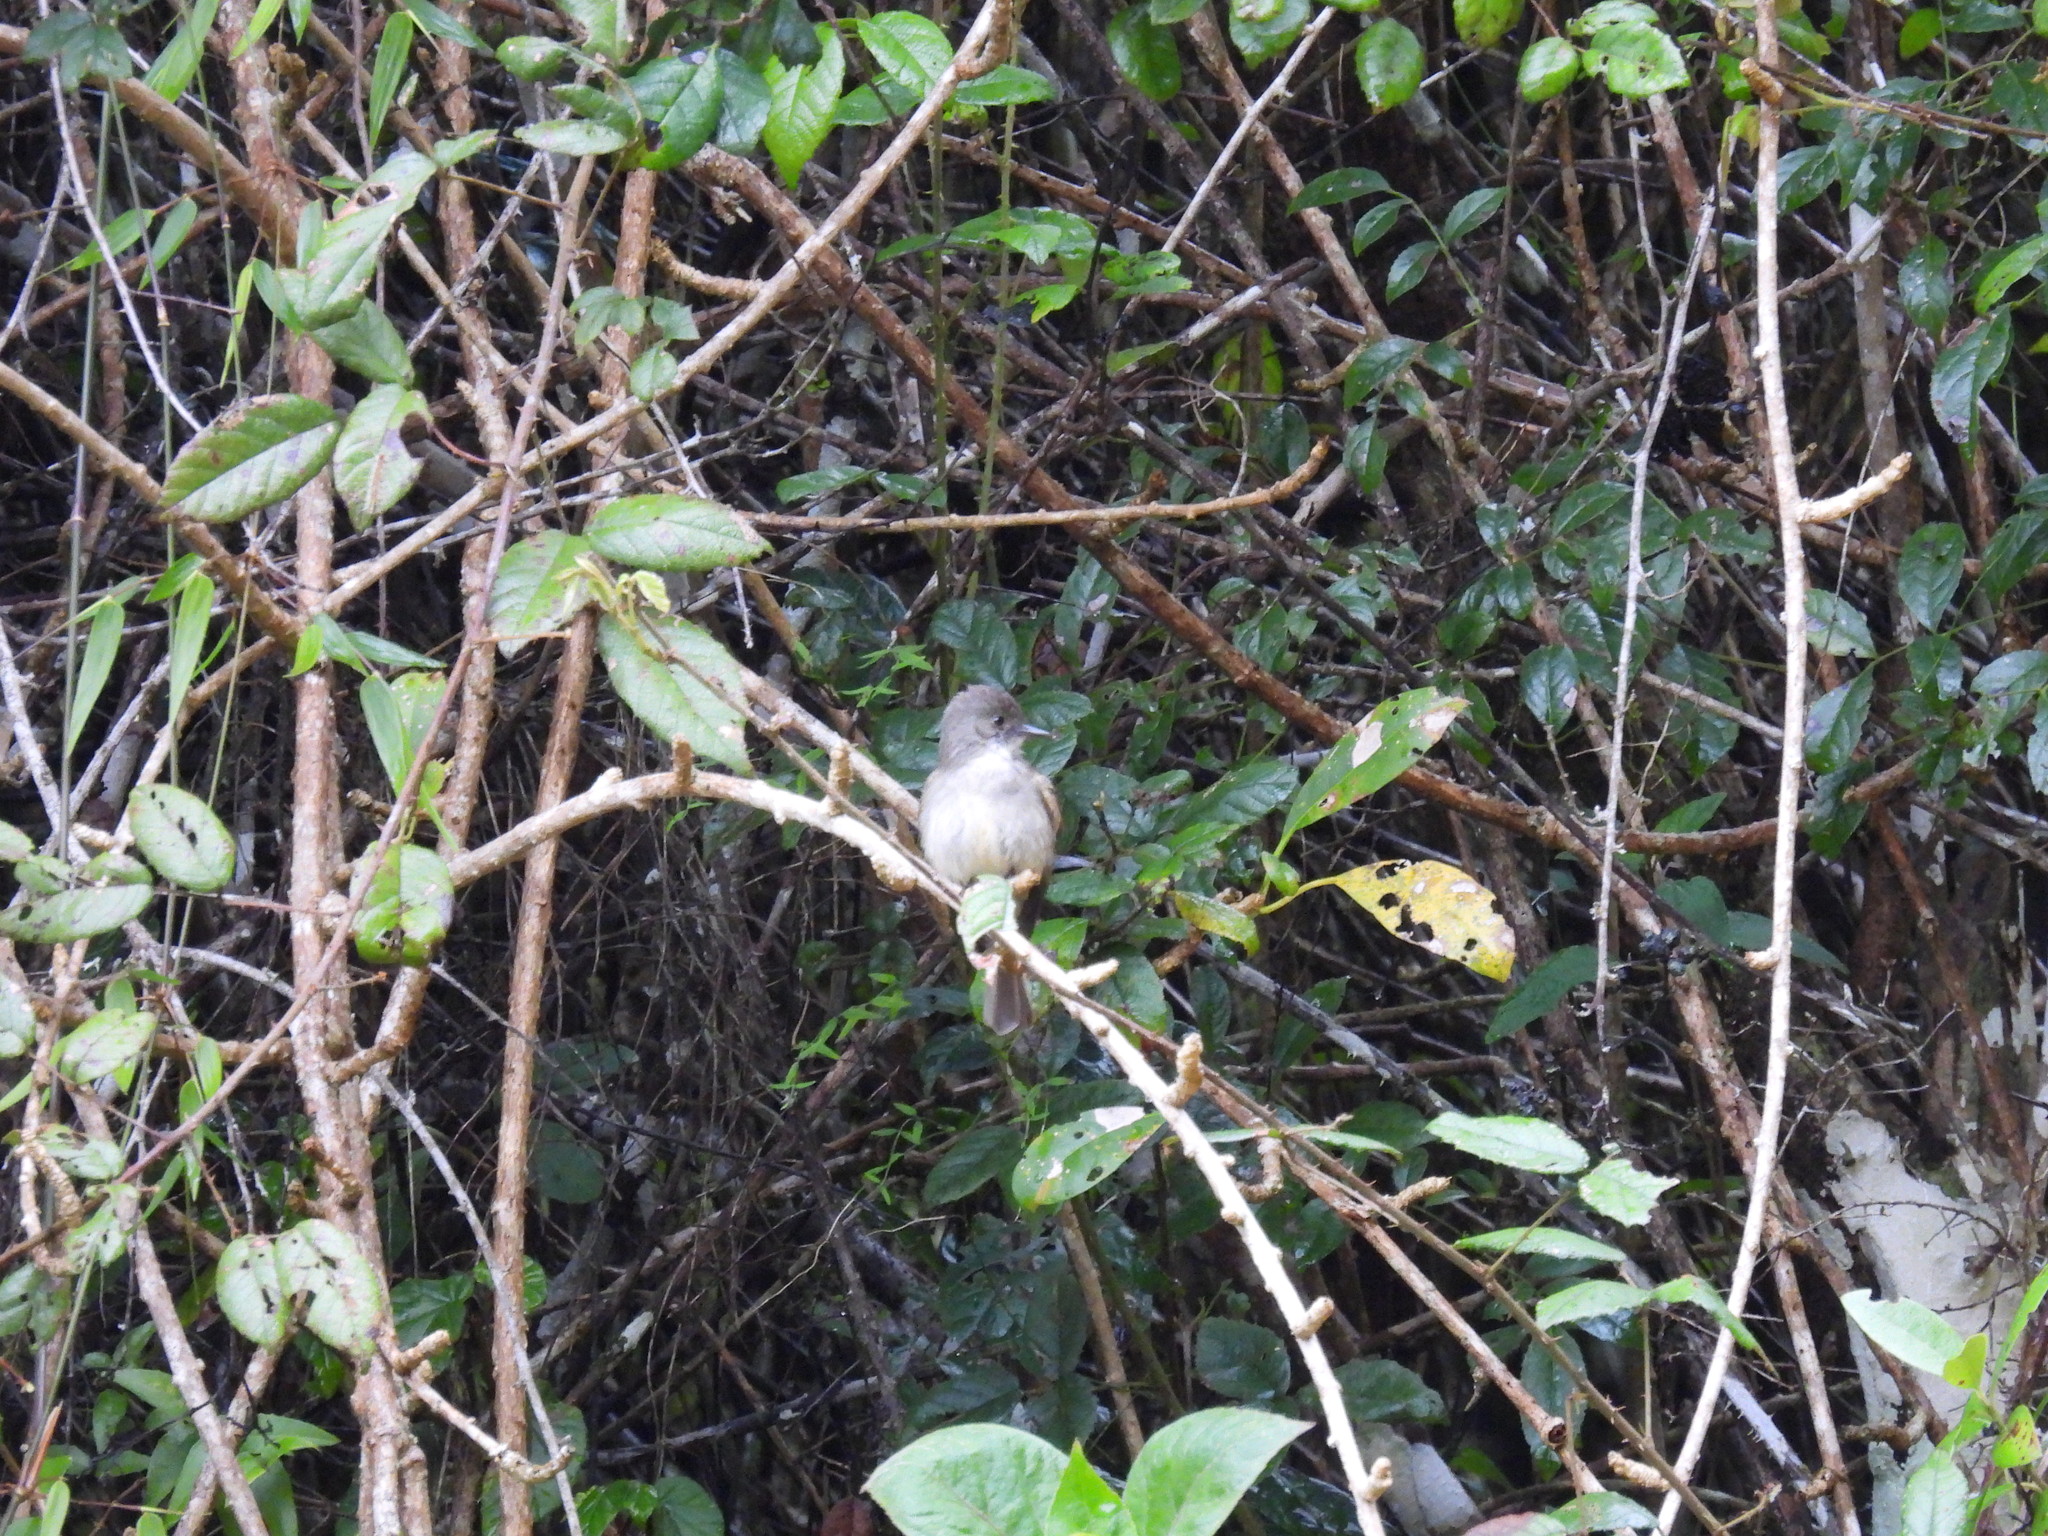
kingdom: Animalia
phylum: Chordata
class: Aves
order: Passeriformes
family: Tyrannidae
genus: Contopus
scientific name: Contopus hispaniolensis
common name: Hispaniolan pewee
